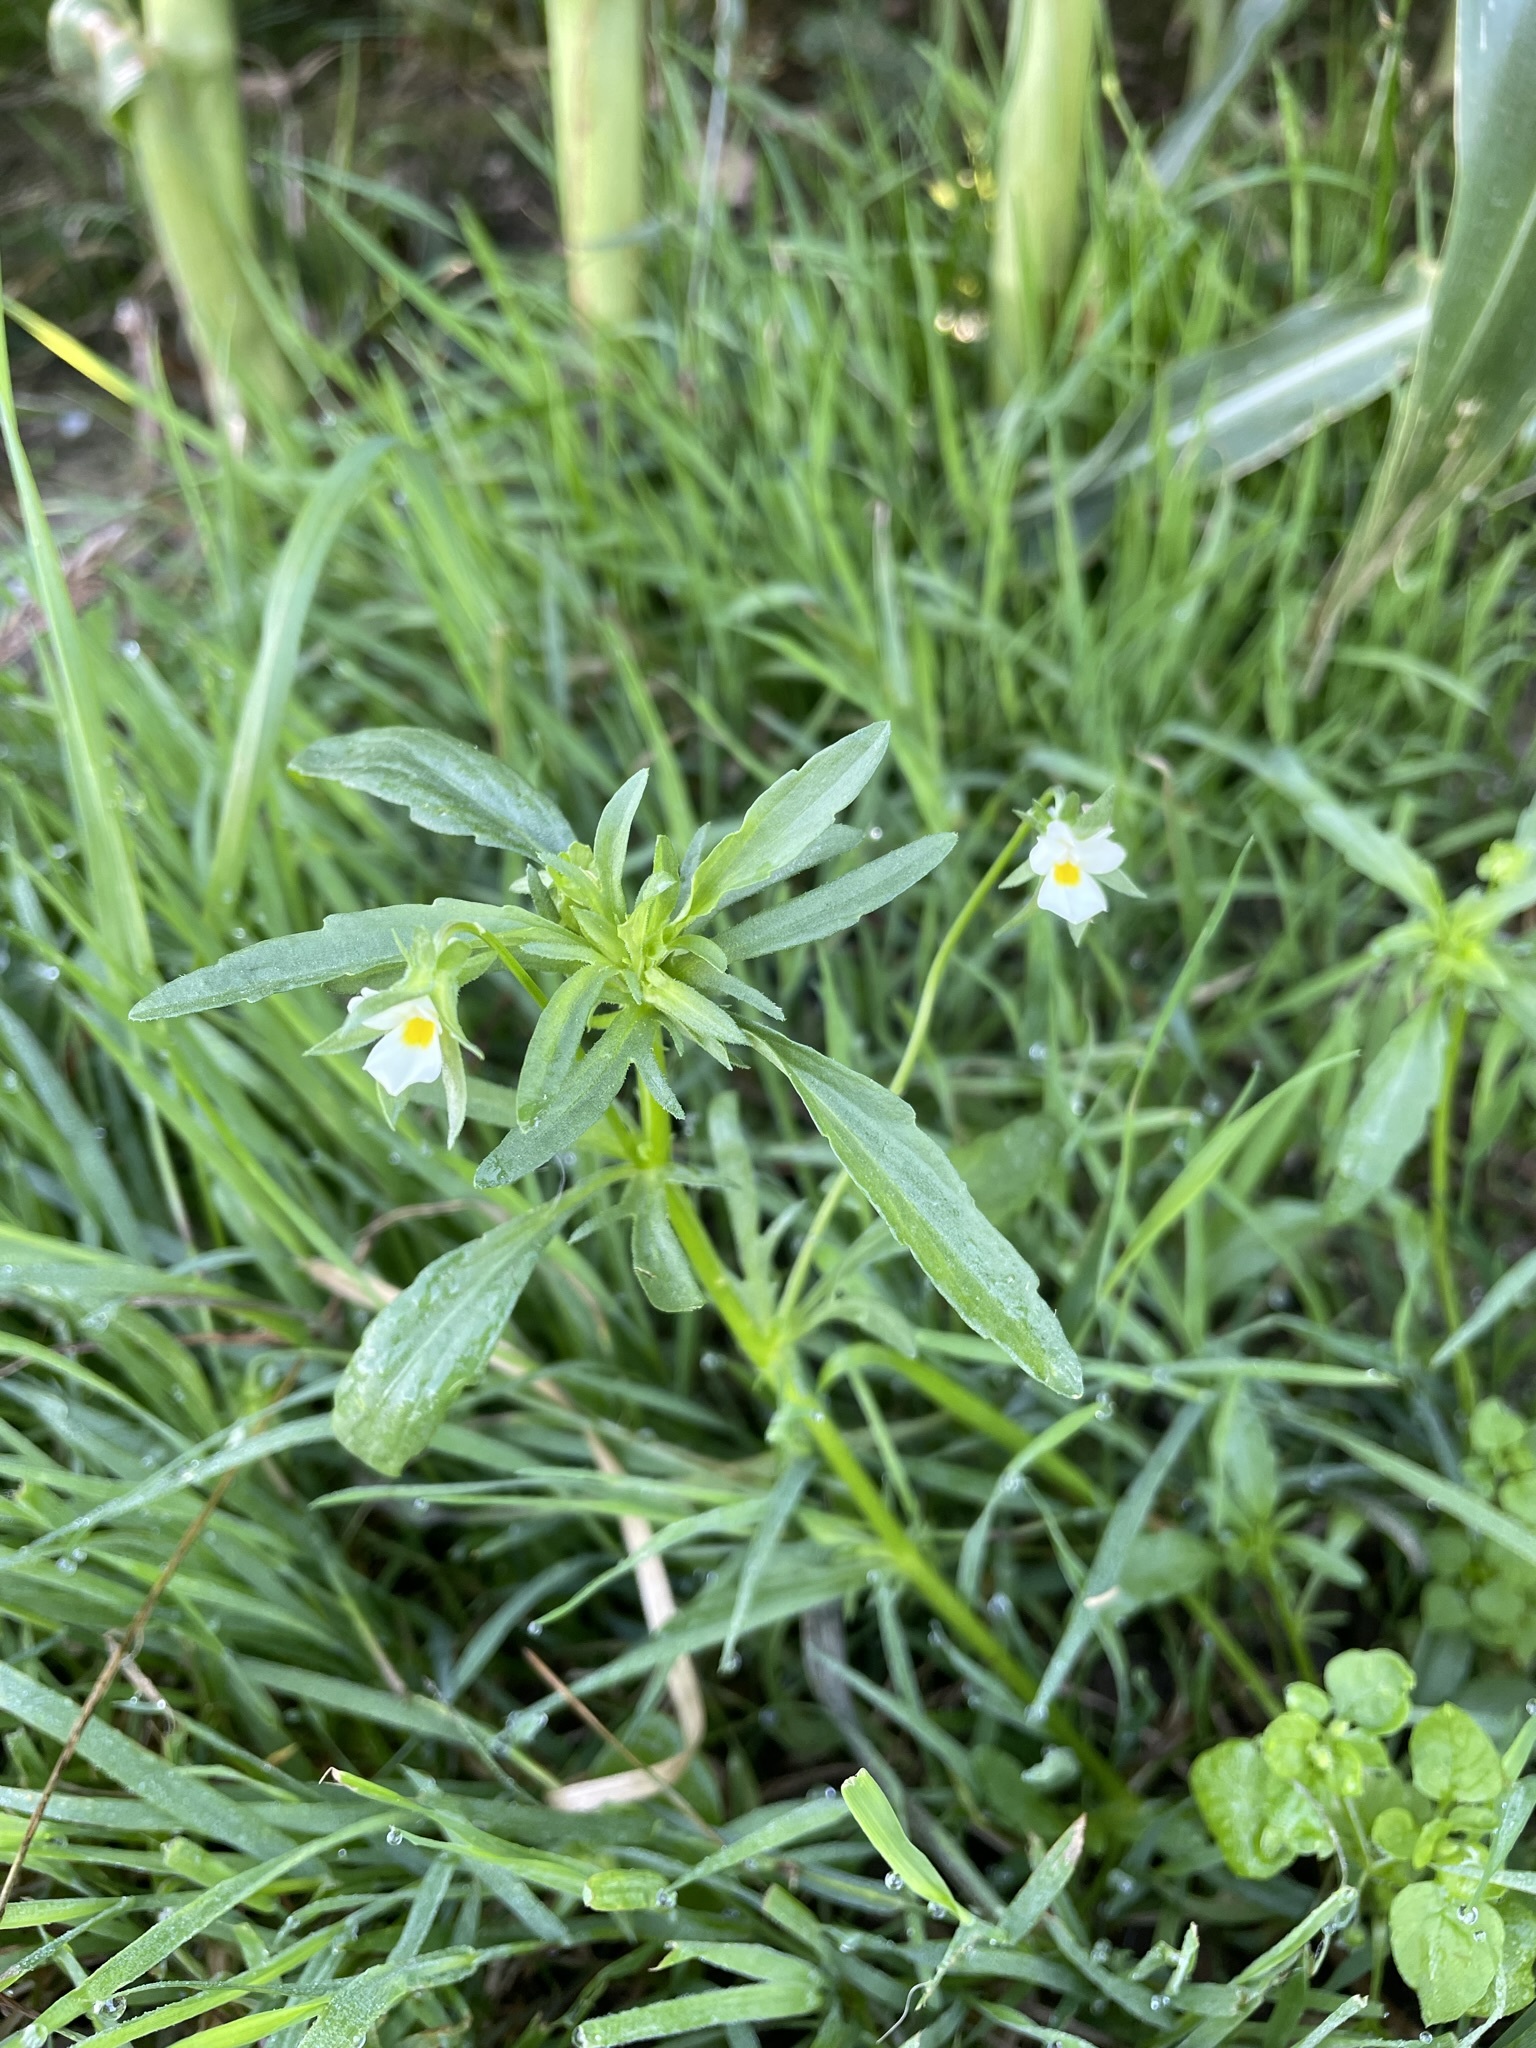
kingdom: Plantae
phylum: Tracheophyta
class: Magnoliopsida
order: Malpighiales
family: Violaceae
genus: Viola
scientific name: Viola arvensis
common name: Field pansy
